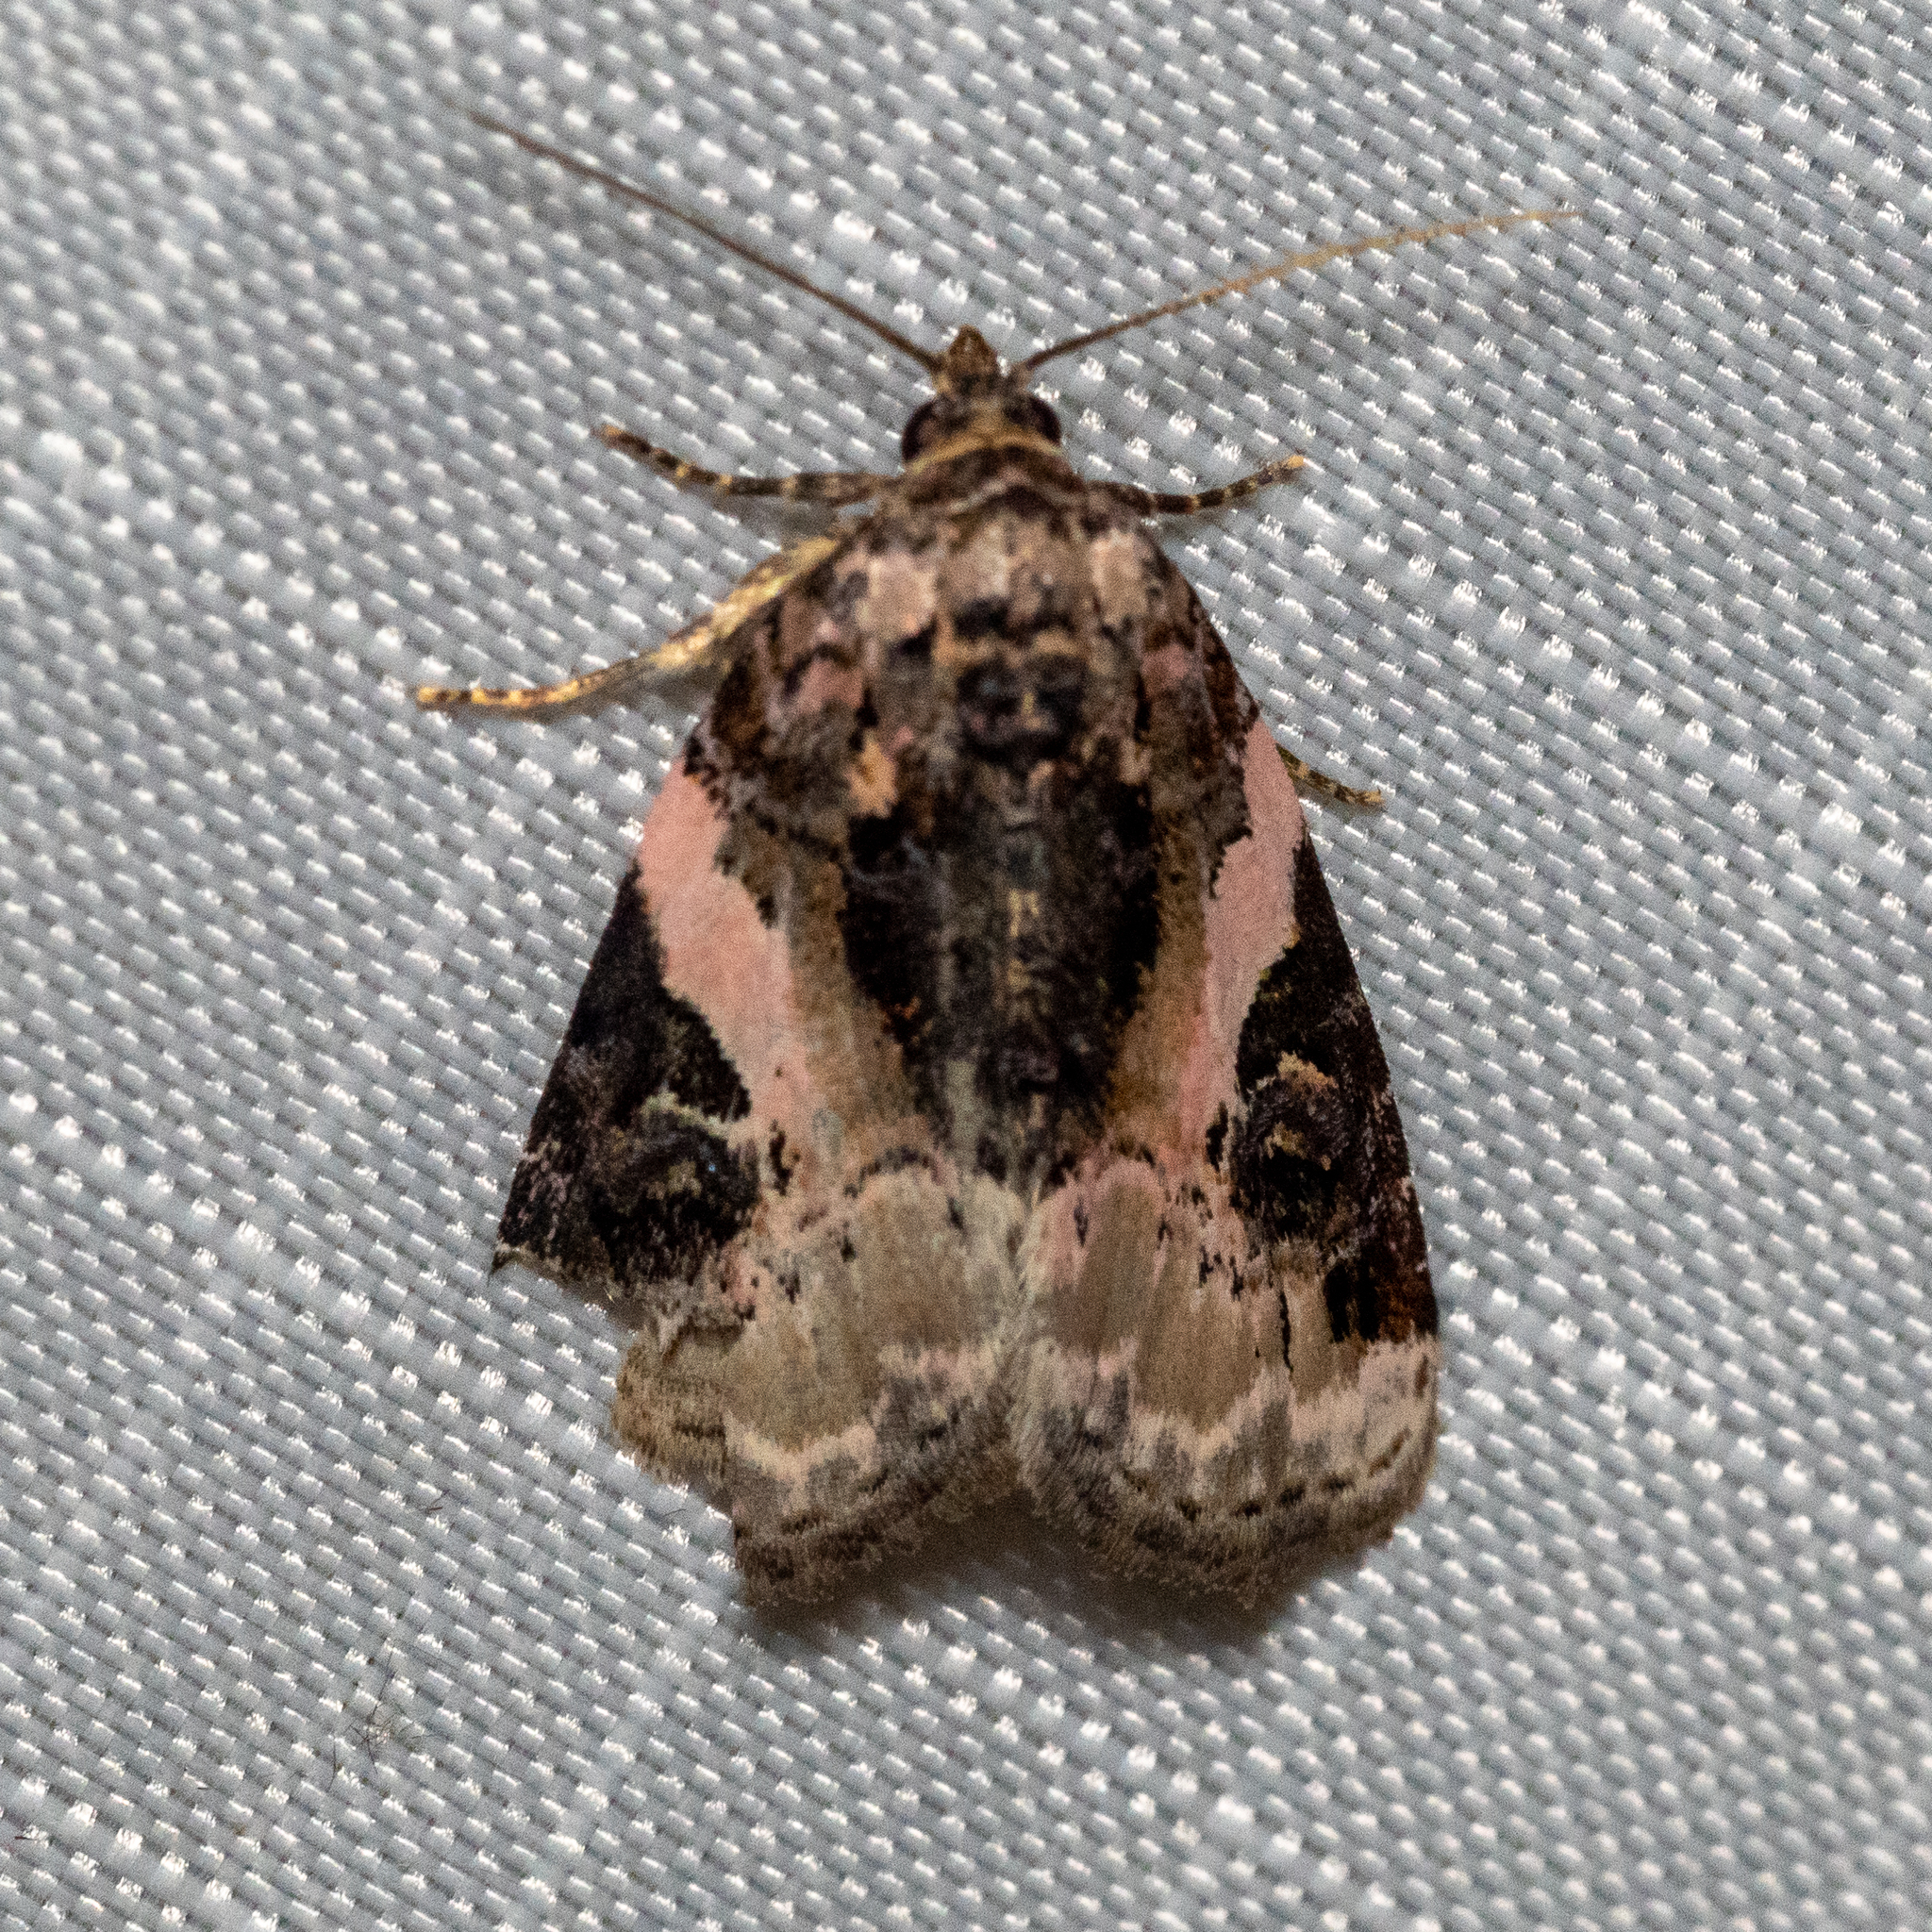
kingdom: Animalia
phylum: Arthropoda
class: Insecta
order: Lepidoptera
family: Noctuidae
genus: Pseudeustrotia
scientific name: Pseudeustrotia carneola
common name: Pink-barred lithacodia moth
